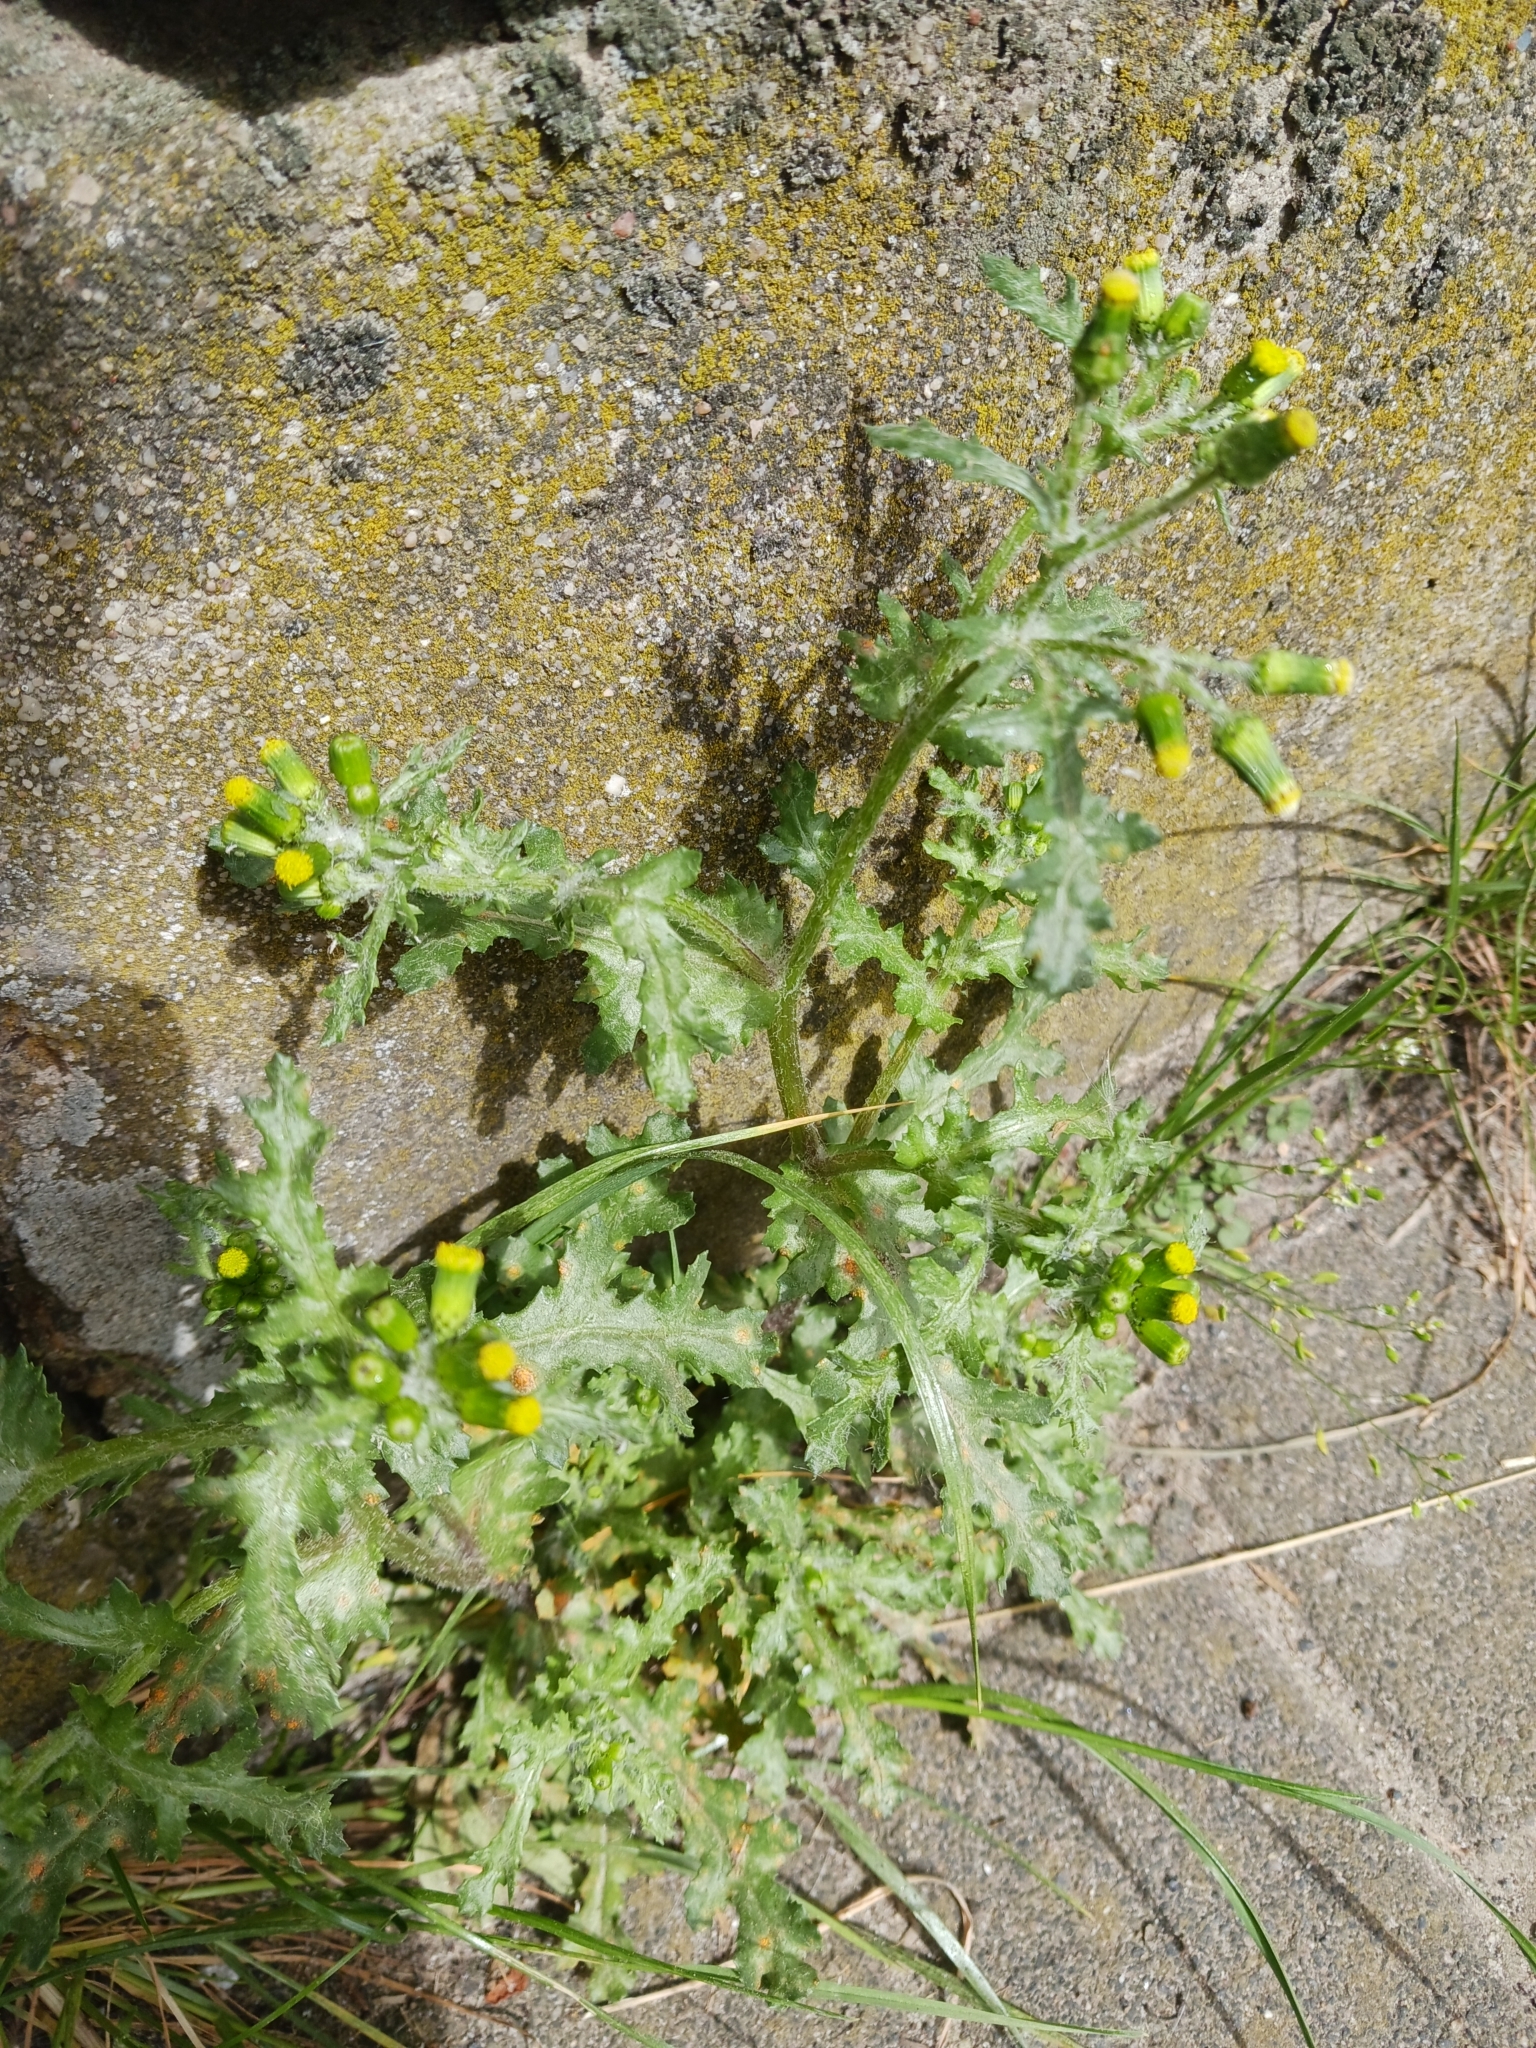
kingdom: Plantae
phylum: Tracheophyta
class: Magnoliopsida
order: Asterales
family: Asteraceae
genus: Senecio
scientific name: Senecio vulgaris
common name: Old-man-in-the-spring
